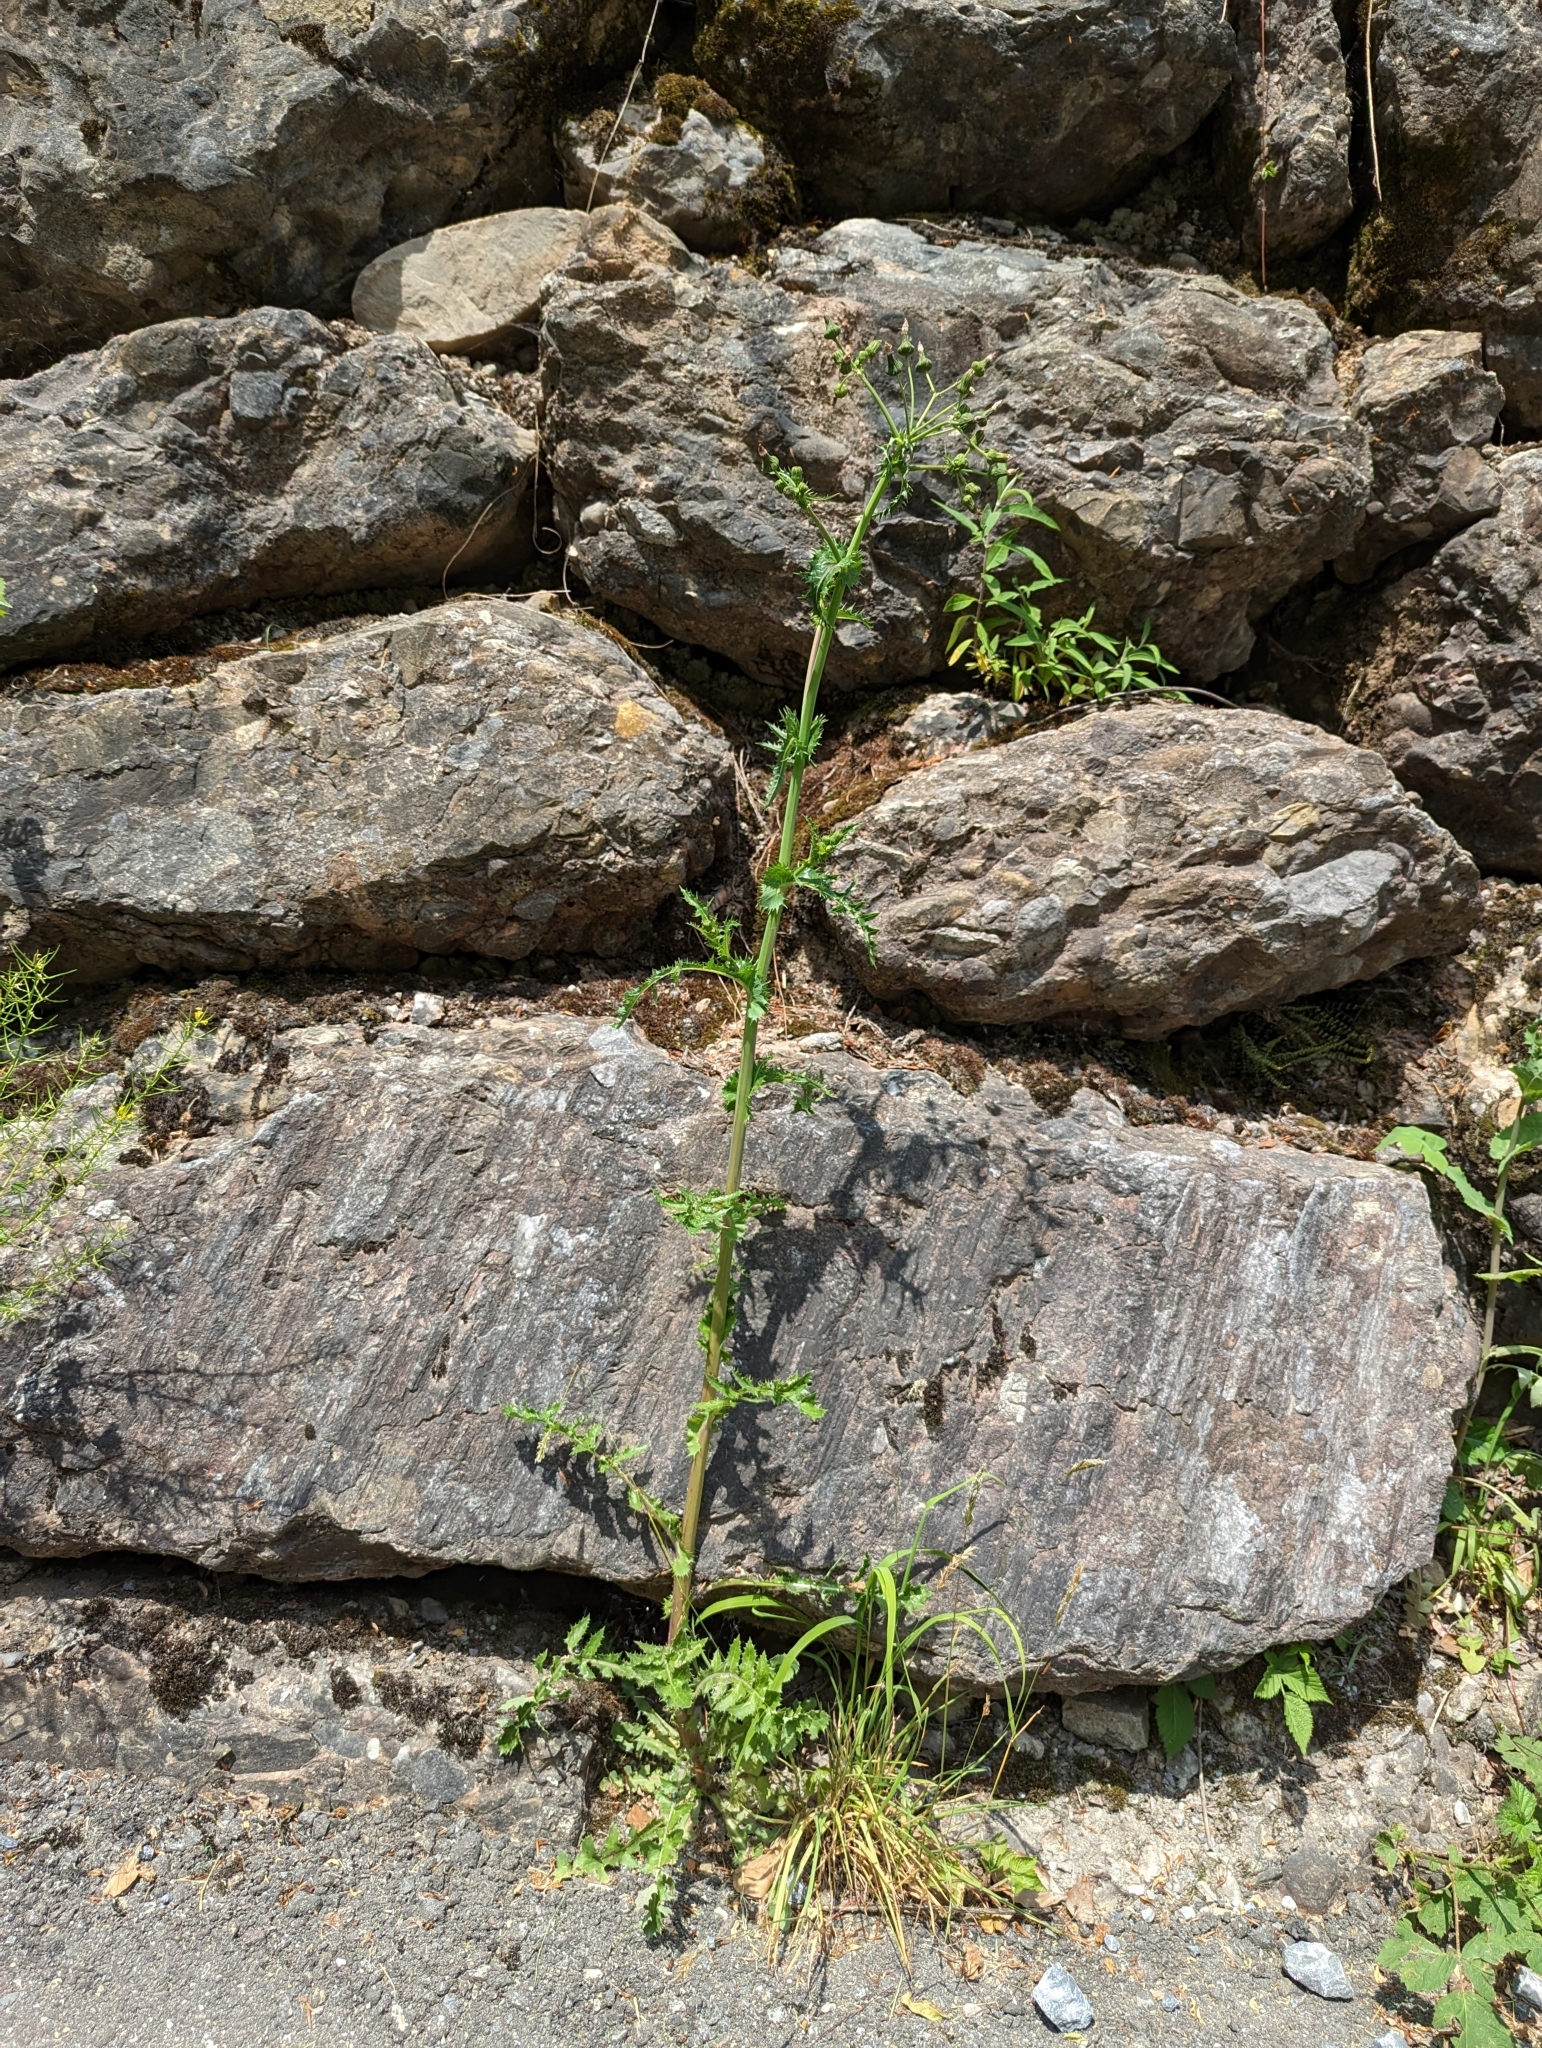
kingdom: Plantae
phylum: Tracheophyta
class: Magnoliopsida
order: Asterales
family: Asteraceae
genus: Sonchus
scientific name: Sonchus asper
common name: Prickly sow-thistle
